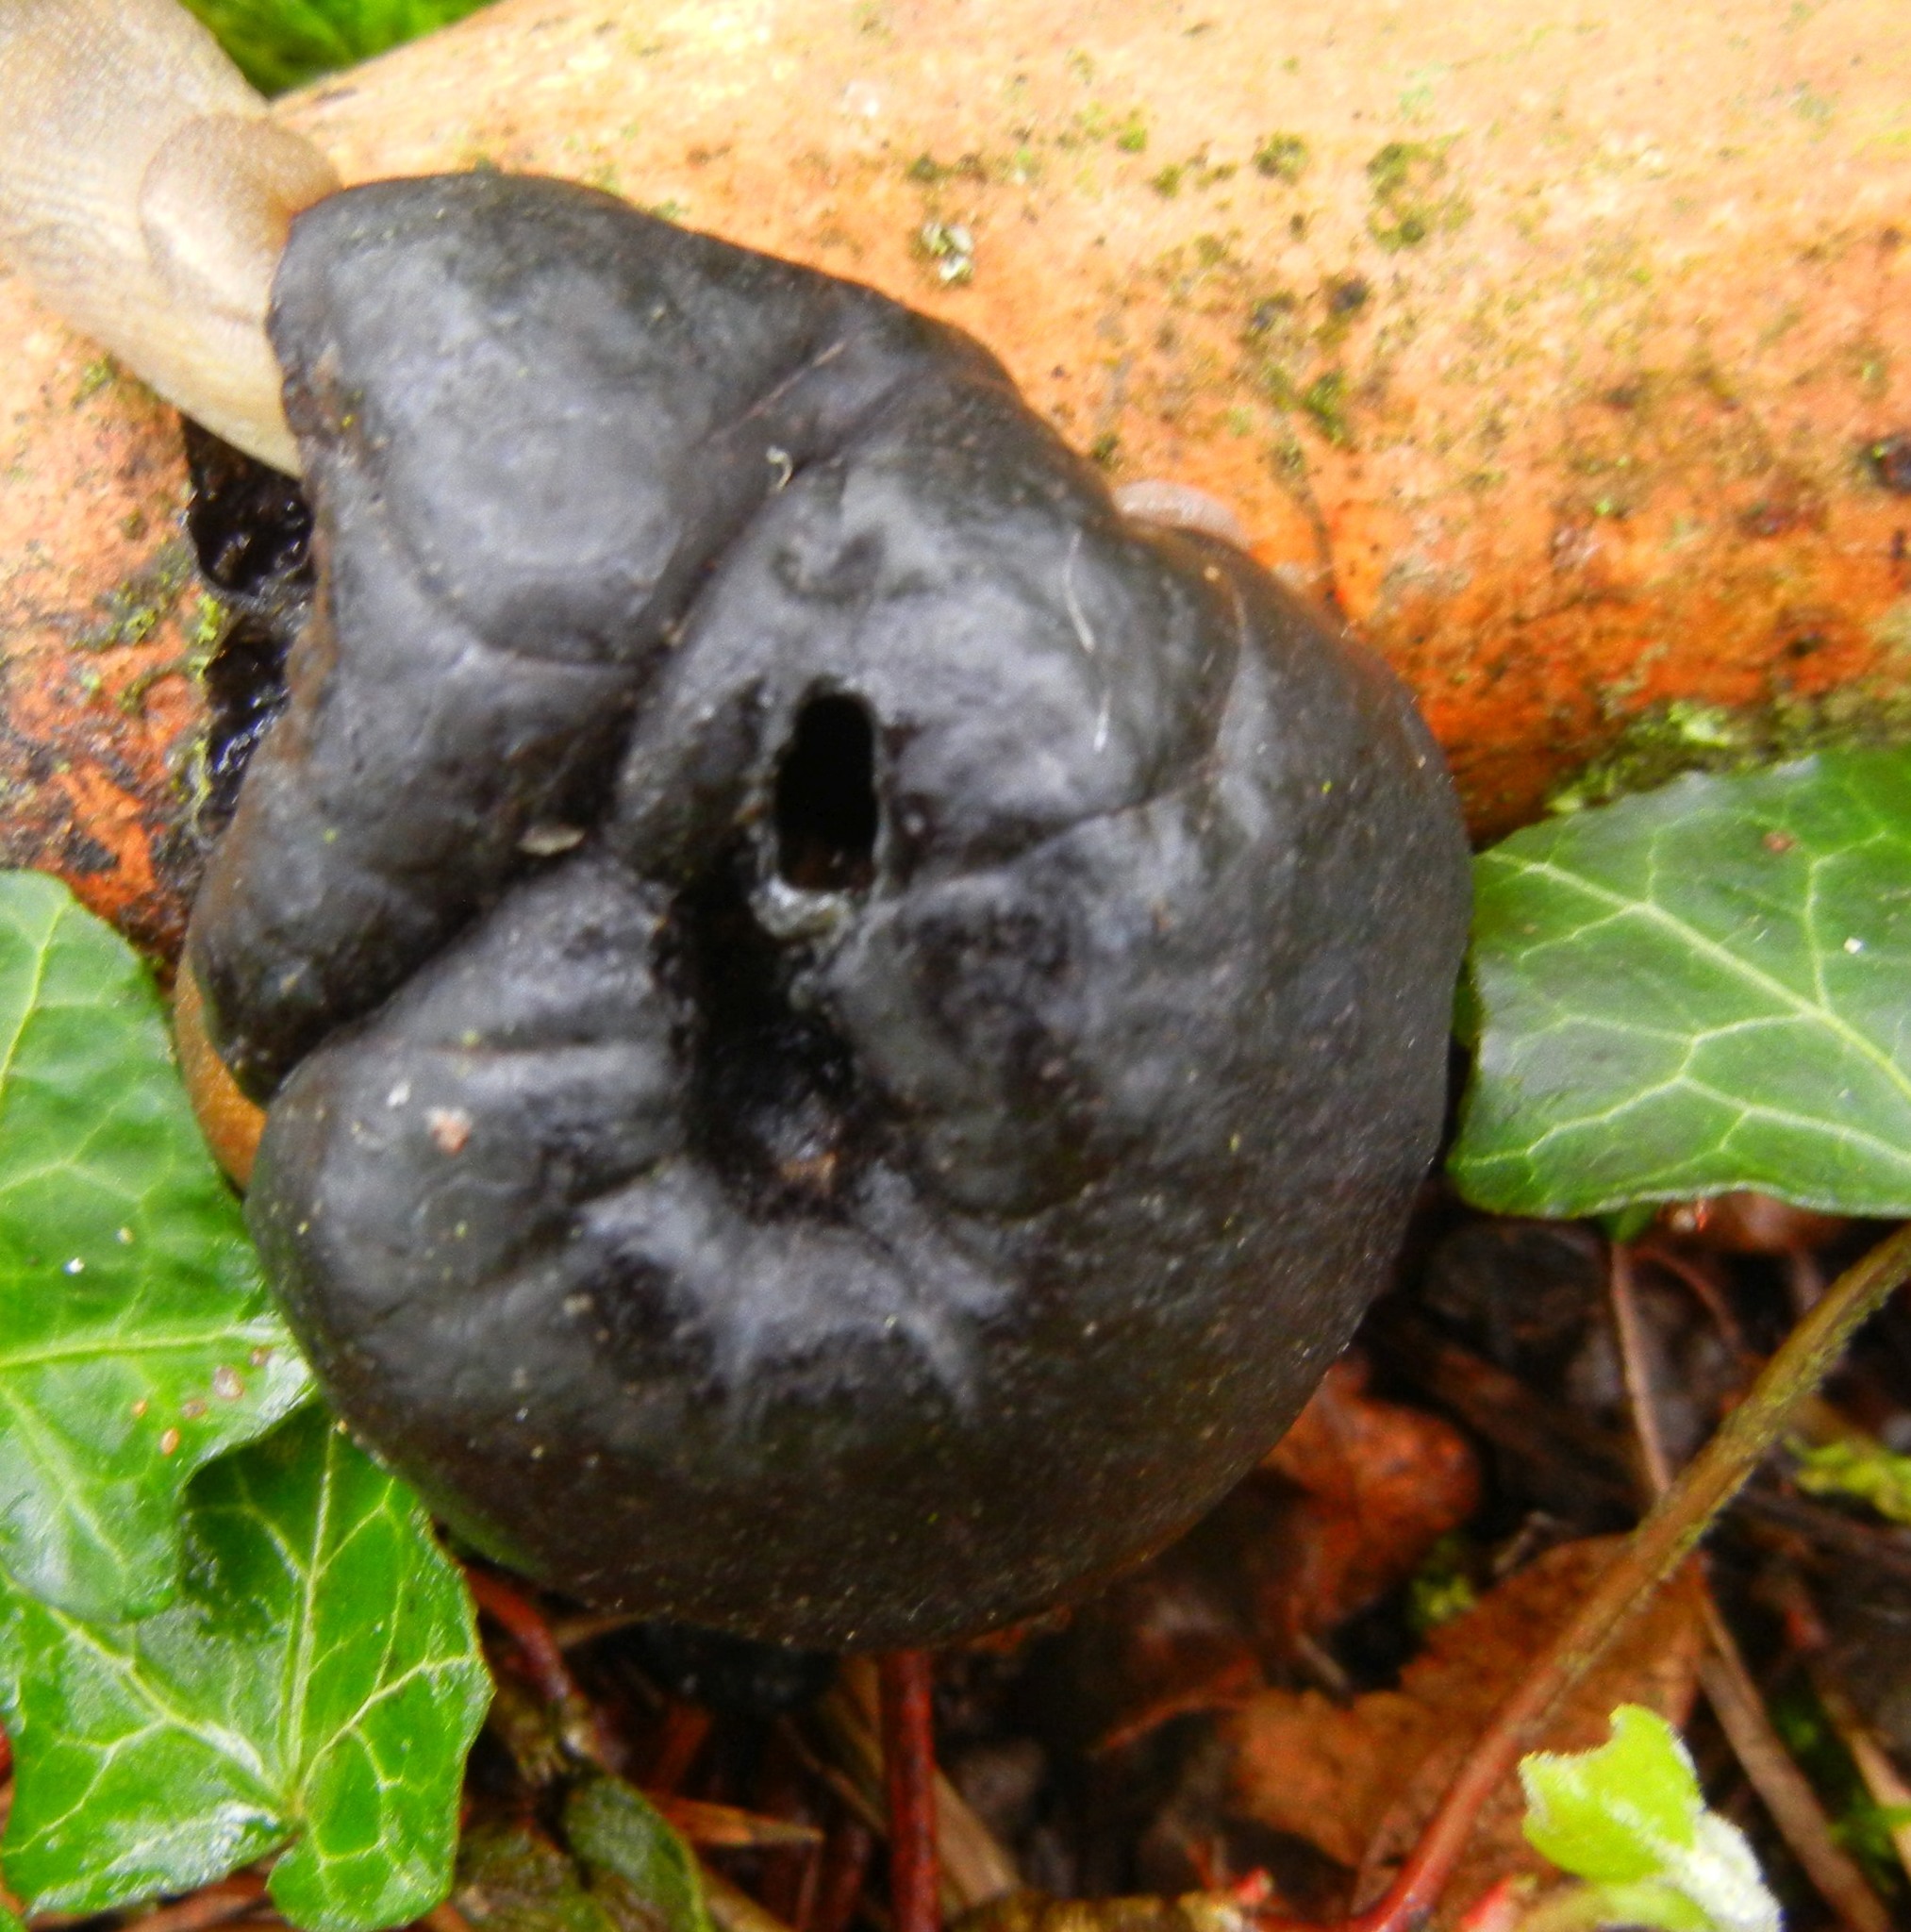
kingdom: Fungi
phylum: Ascomycota
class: Sordariomycetes
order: Xylariales
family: Hypoxylaceae
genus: Daldinia
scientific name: Daldinia concentrica
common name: Cramp balls
